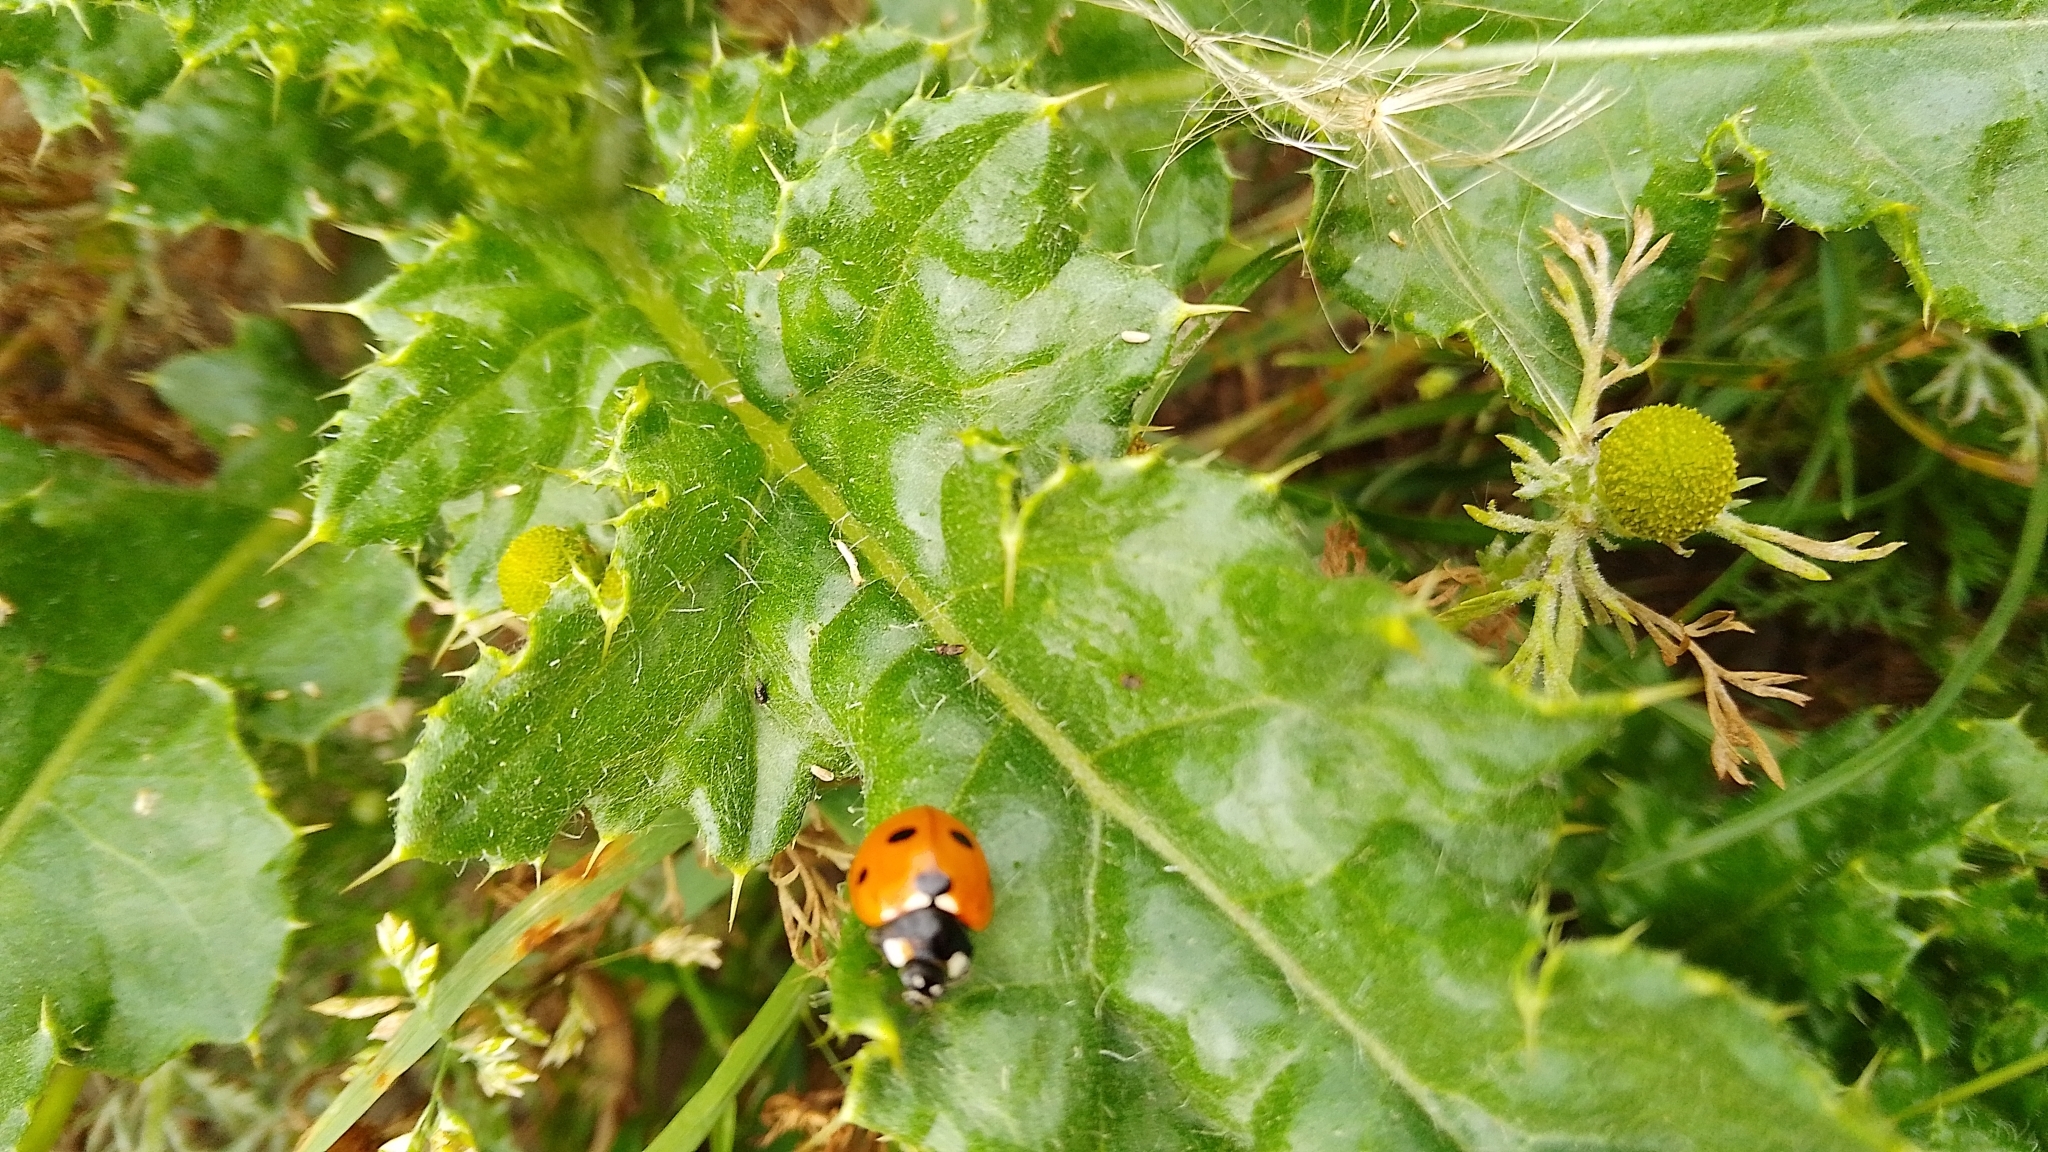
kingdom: Animalia
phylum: Arthropoda
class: Insecta
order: Coleoptera
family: Coccinellidae
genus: Coccinella
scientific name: Coccinella septempunctata
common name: Sevenspotted lady beetle
